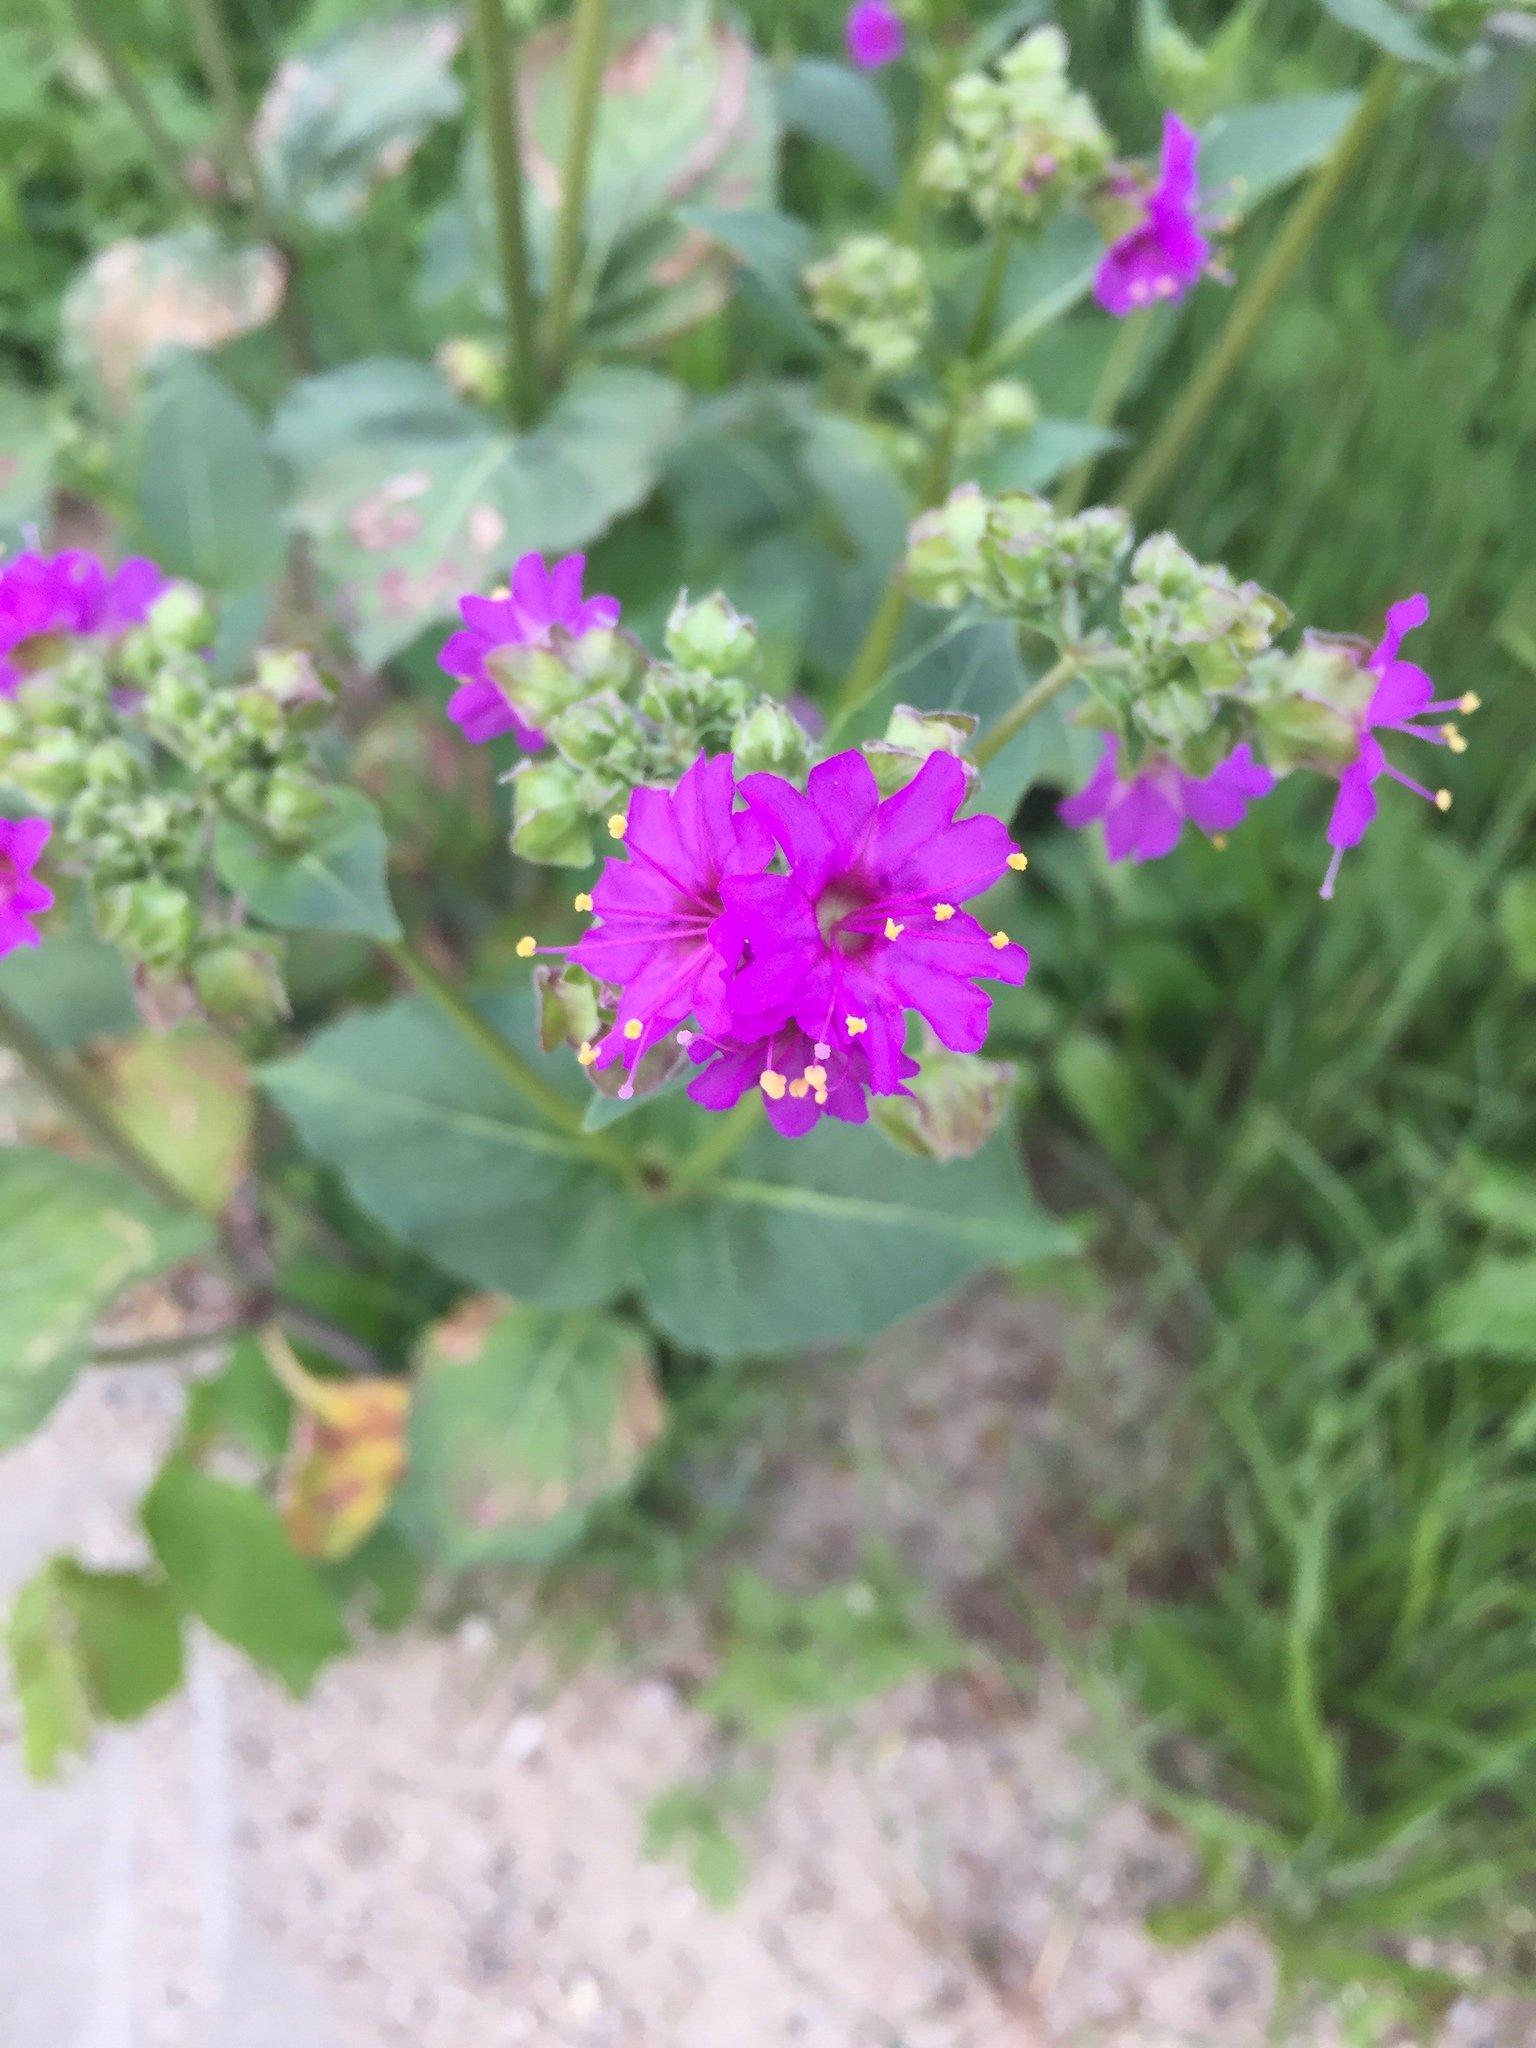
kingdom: Plantae
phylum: Tracheophyta
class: Magnoliopsida
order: Caryophyllales
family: Nyctaginaceae
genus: Mirabilis
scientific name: Mirabilis nyctaginea
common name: Umbrella wort
